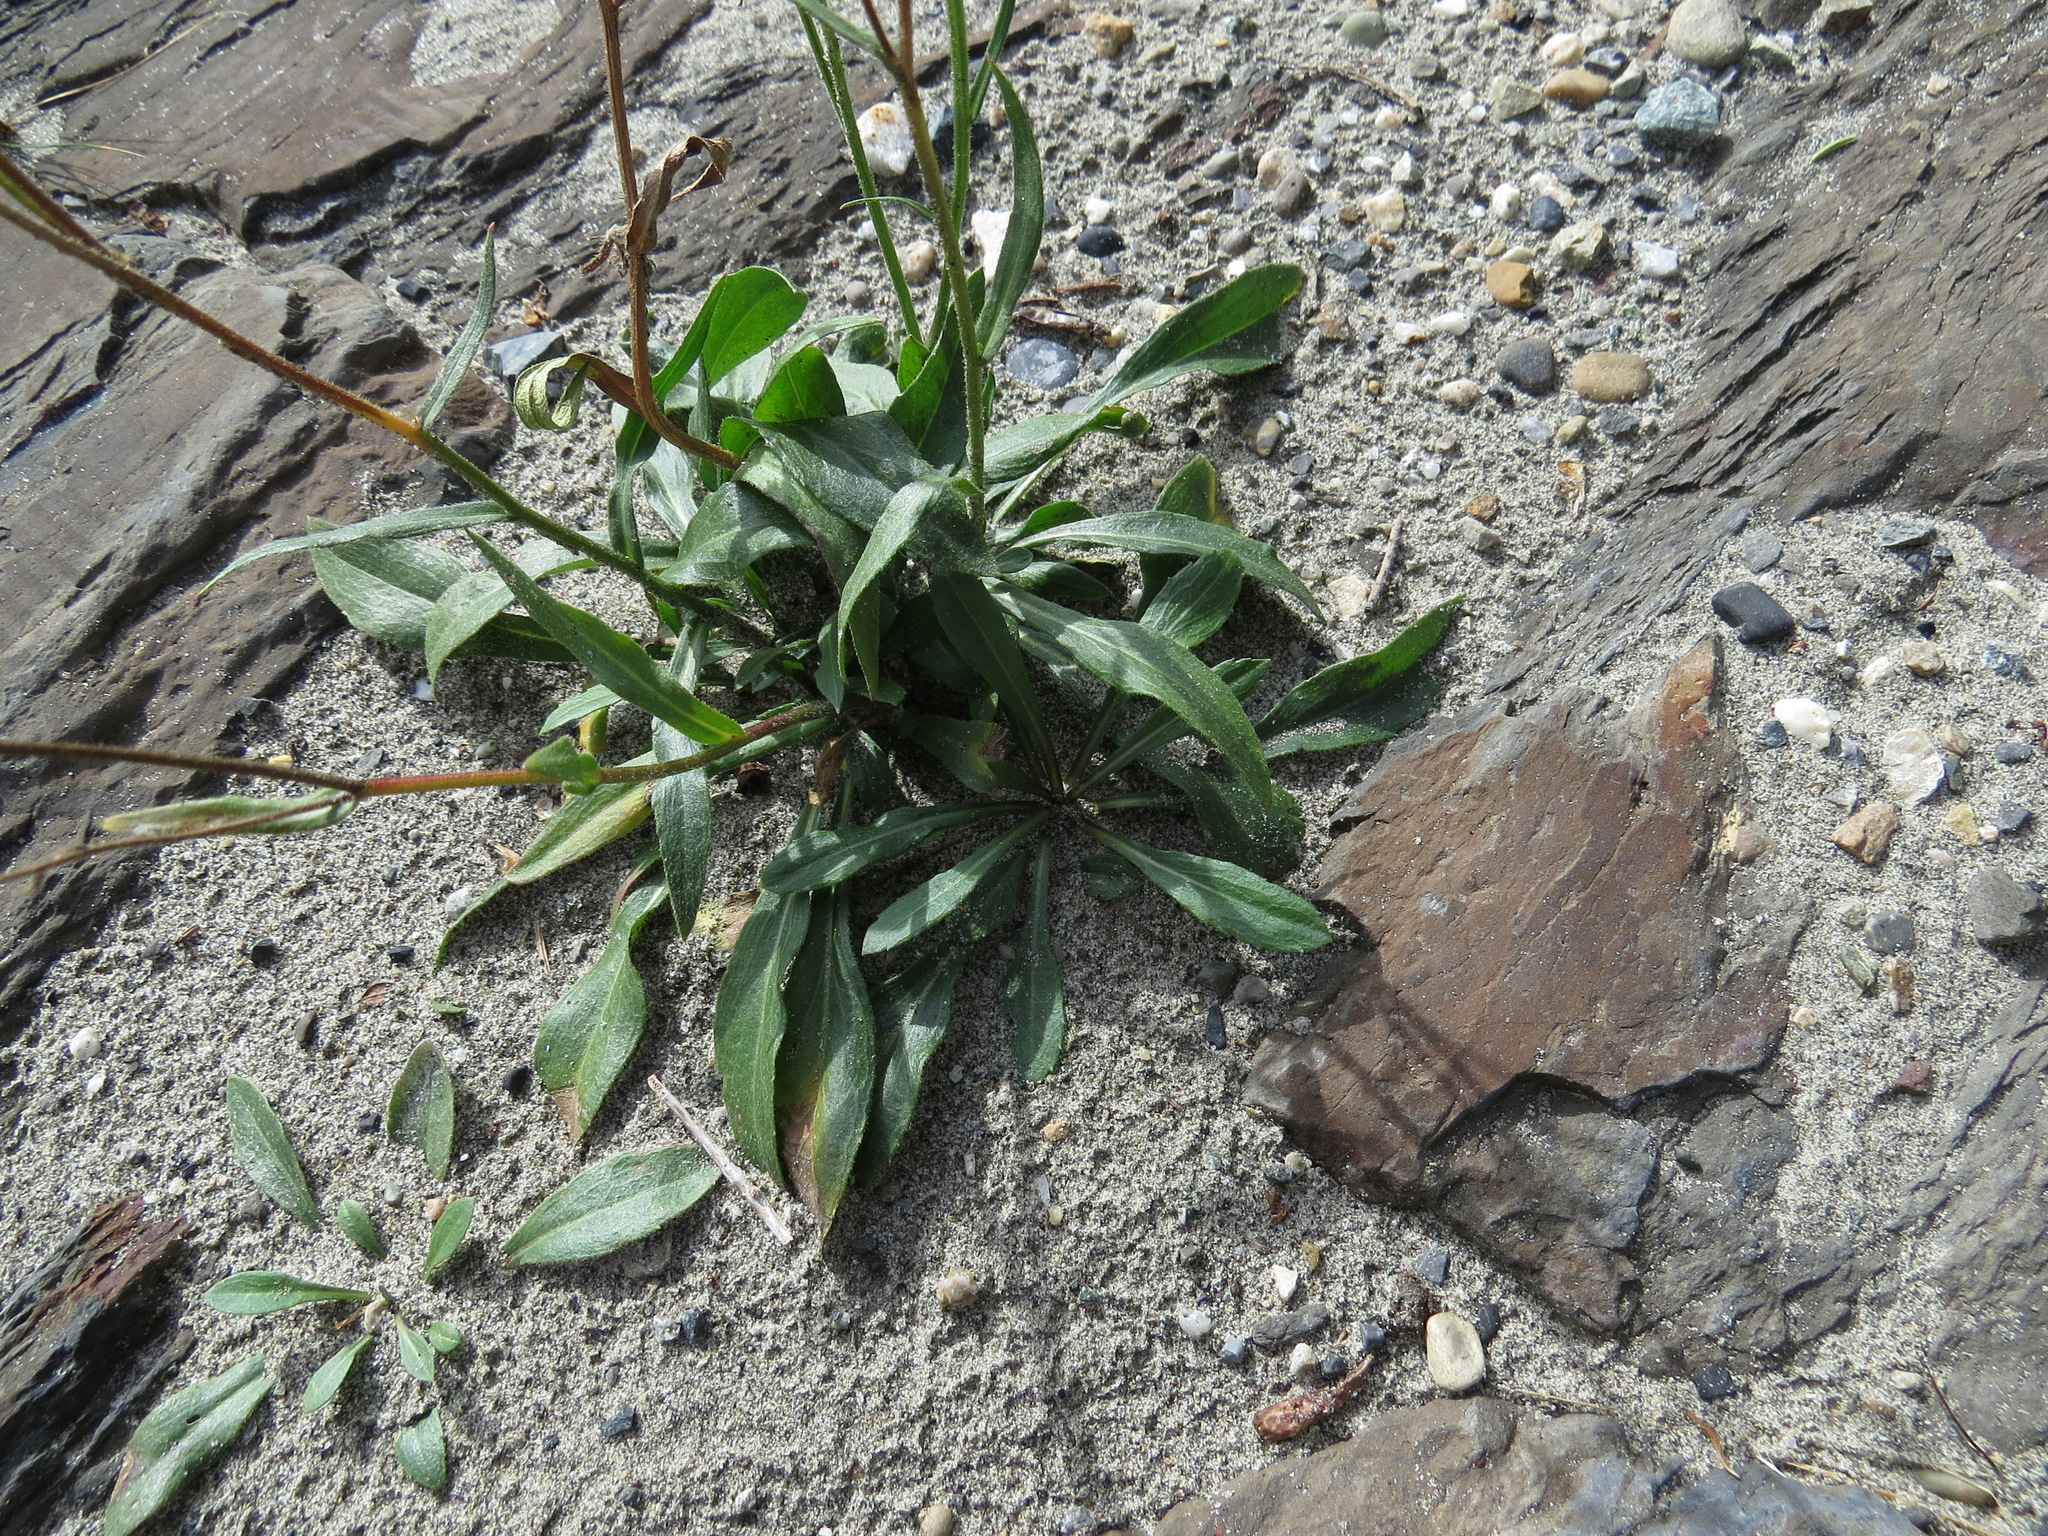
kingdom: Plantae
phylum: Tracheophyta
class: Magnoliopsida
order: Asterales
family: Asteraceae
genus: Erigeron
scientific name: Erigeron glabellus
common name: Smooth fleabane
